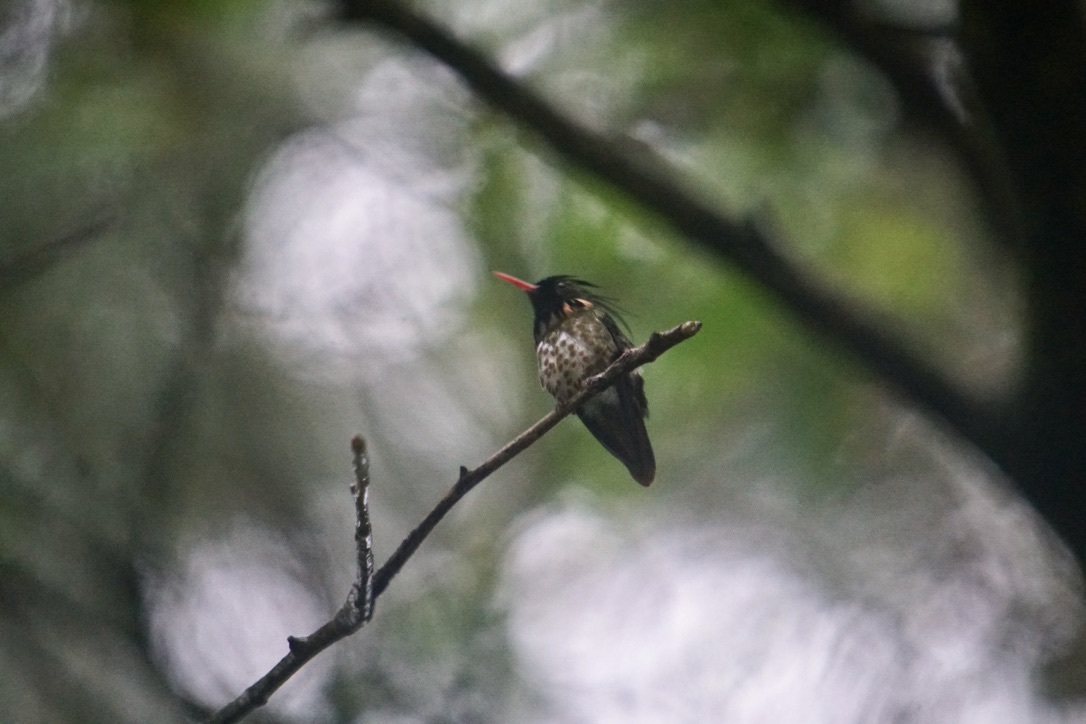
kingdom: Animalia
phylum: Chordata
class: Aves
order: Apodiformes
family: Trochilidae
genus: Lophornis
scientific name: Lophornis helenae
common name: Black-crested coquette
